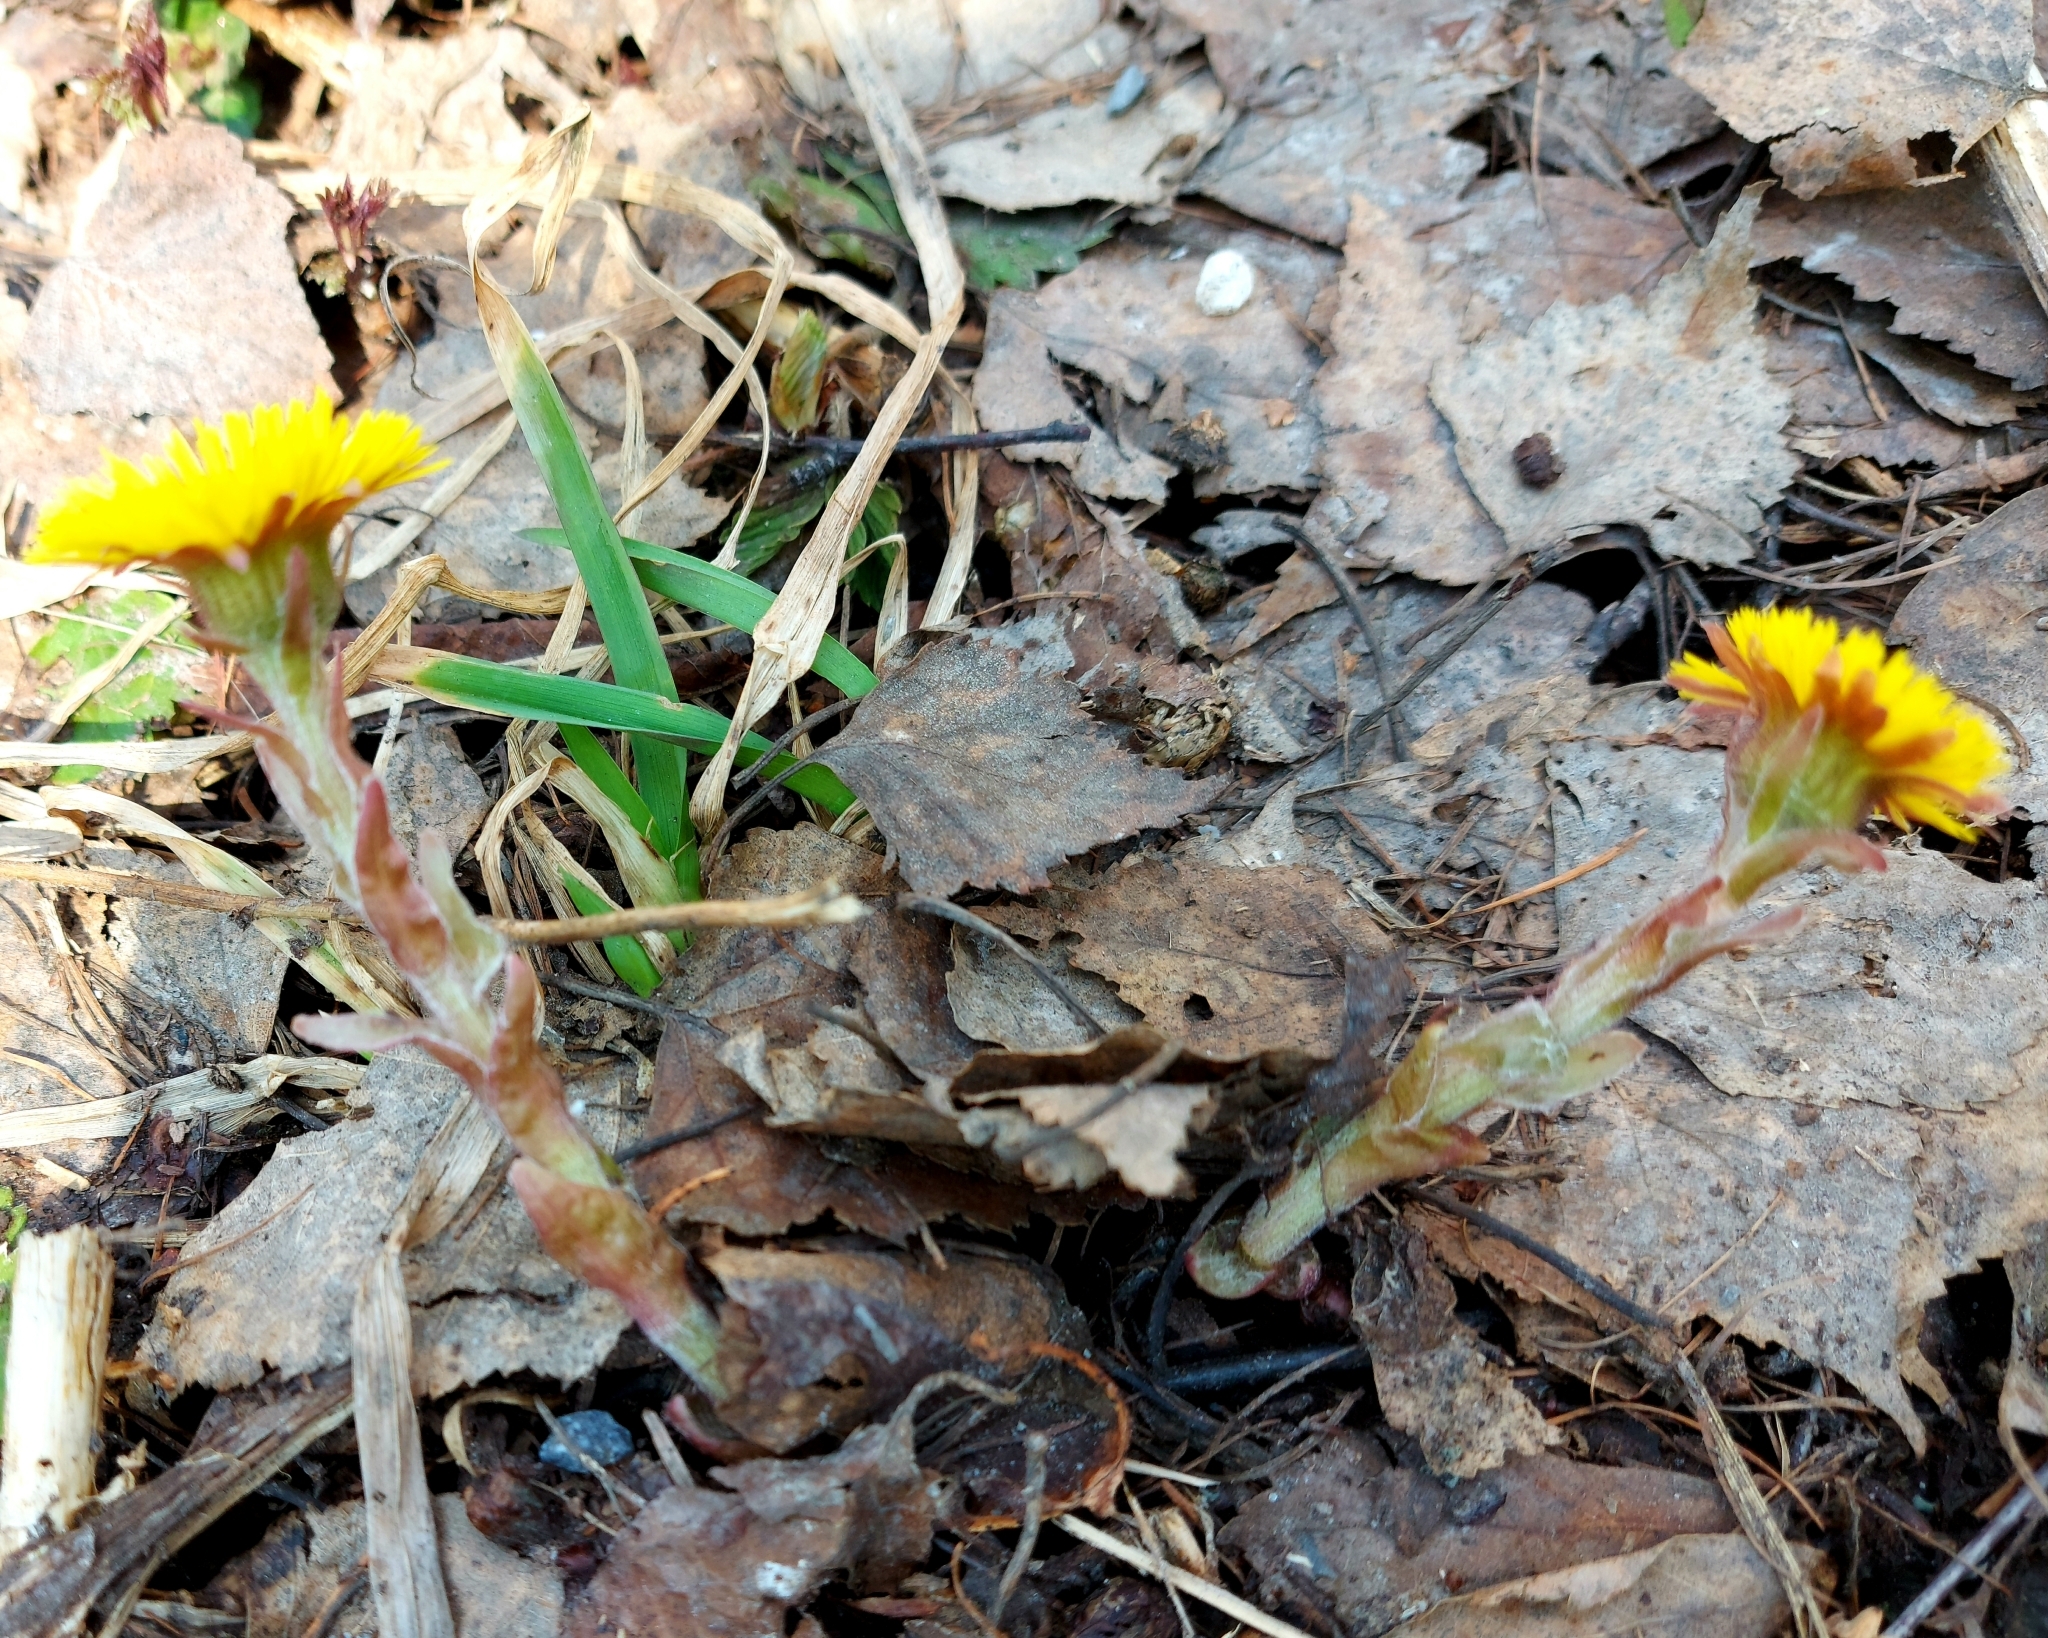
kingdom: Plantae
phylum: Tracheophyta
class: Magnoliopsida
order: Asterales
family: Asteraceae
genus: Tussilago
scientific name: Tussilago farfara
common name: Coltsfoot
